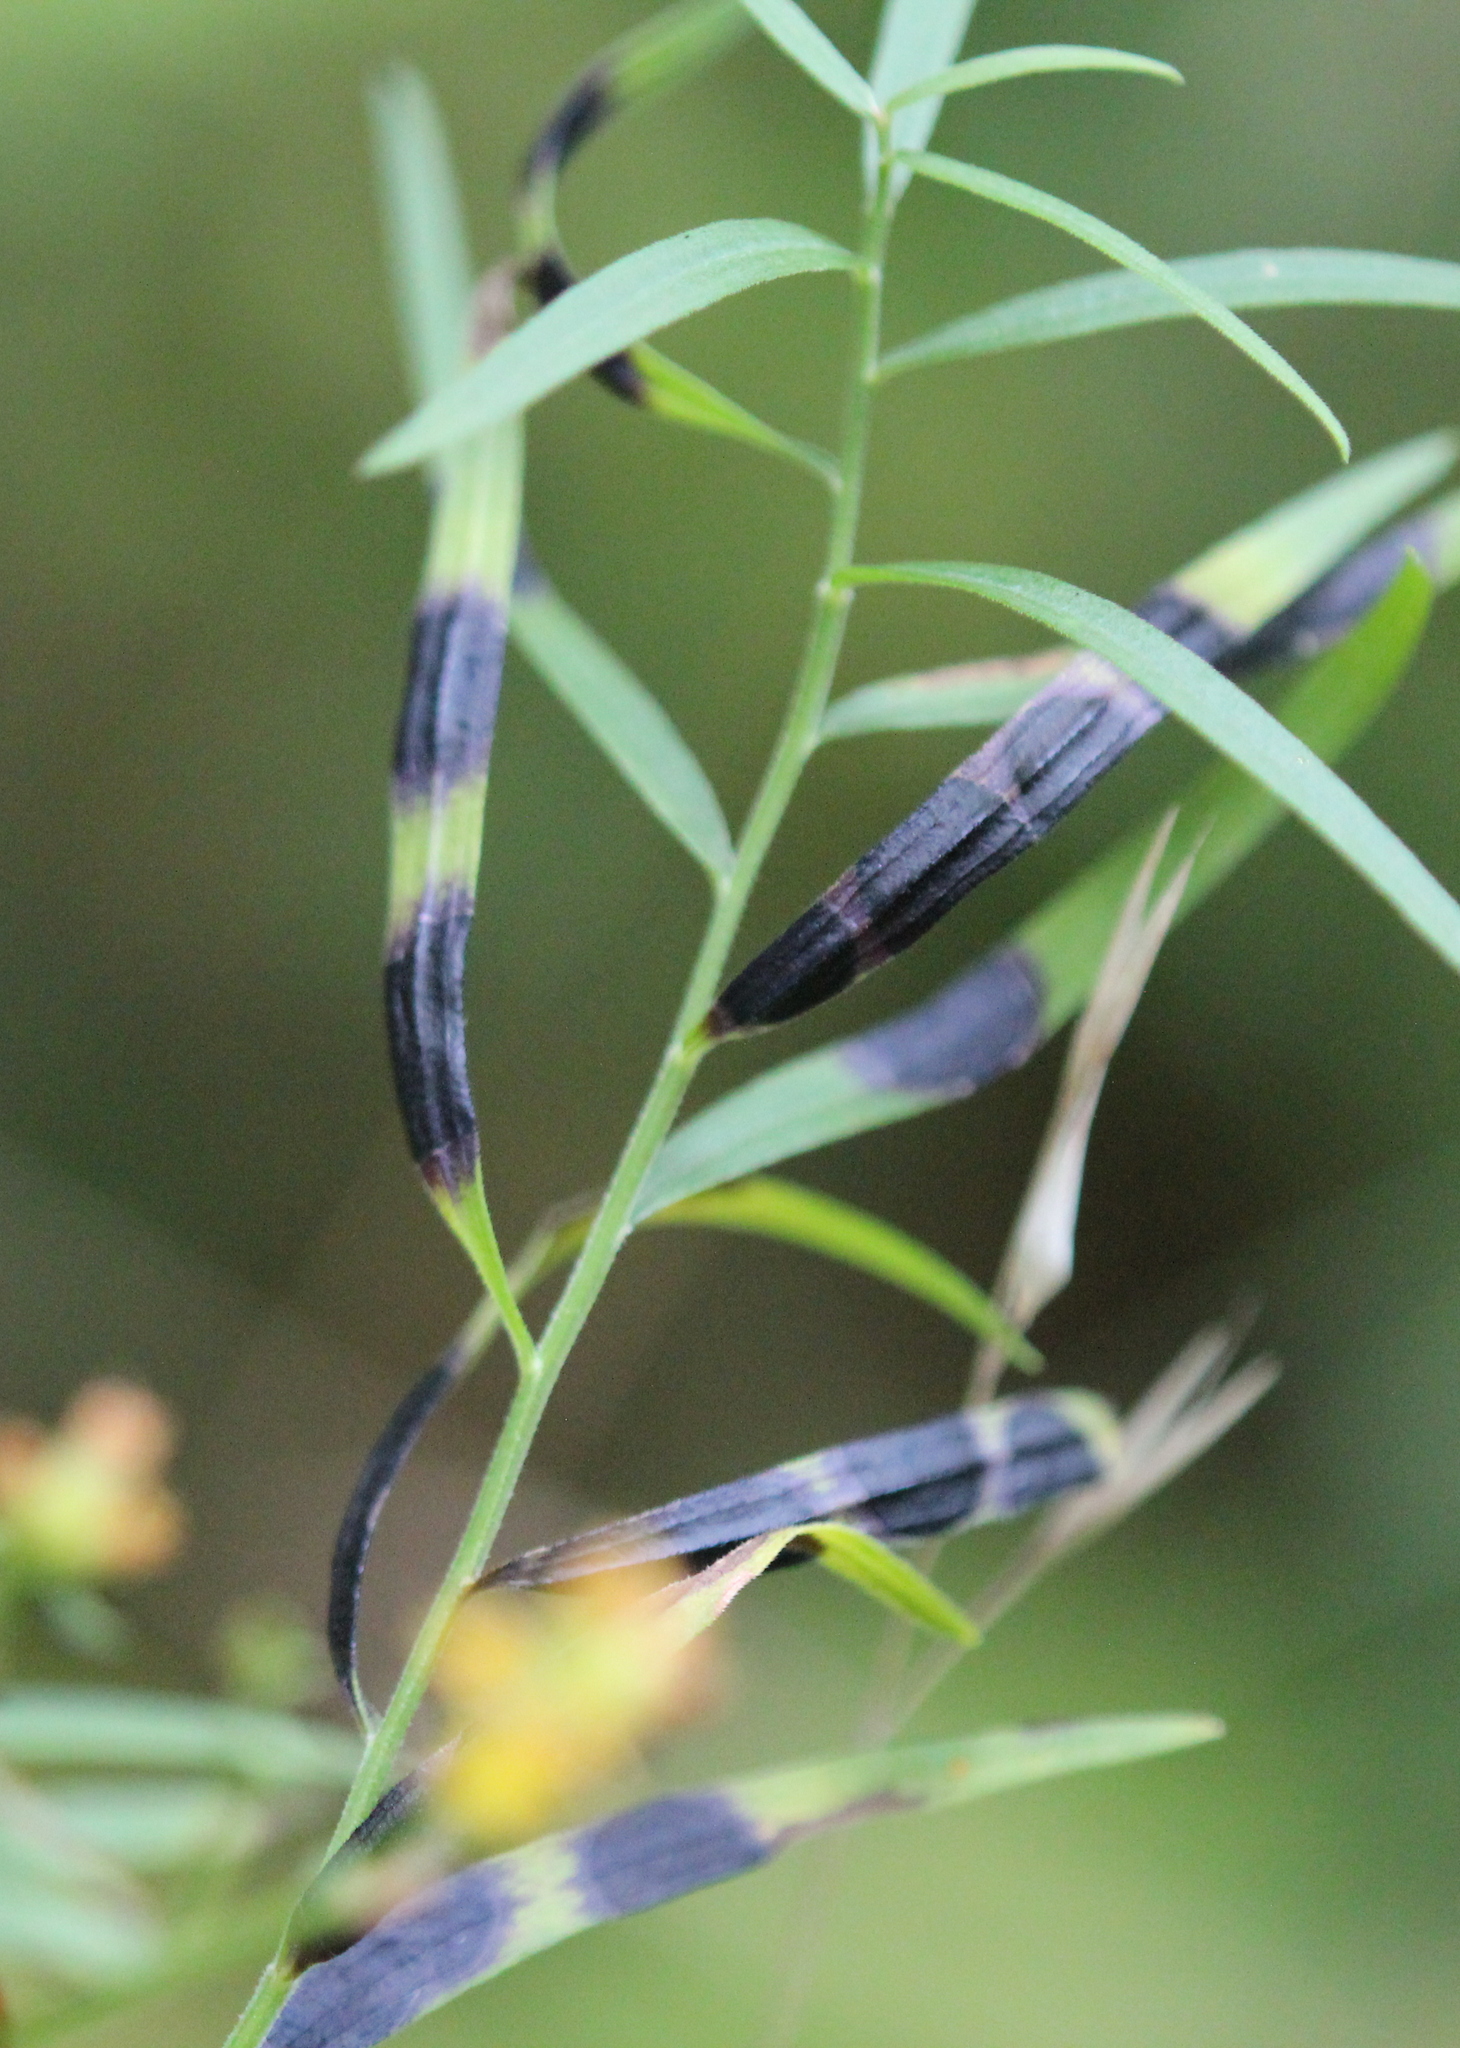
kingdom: Animalia
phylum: Arthropoda
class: Insecta
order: Diptera
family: Cecidomyiidae
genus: Asteromyia
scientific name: Asteromyia euthamiae
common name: Euthamia leaf gall midge
